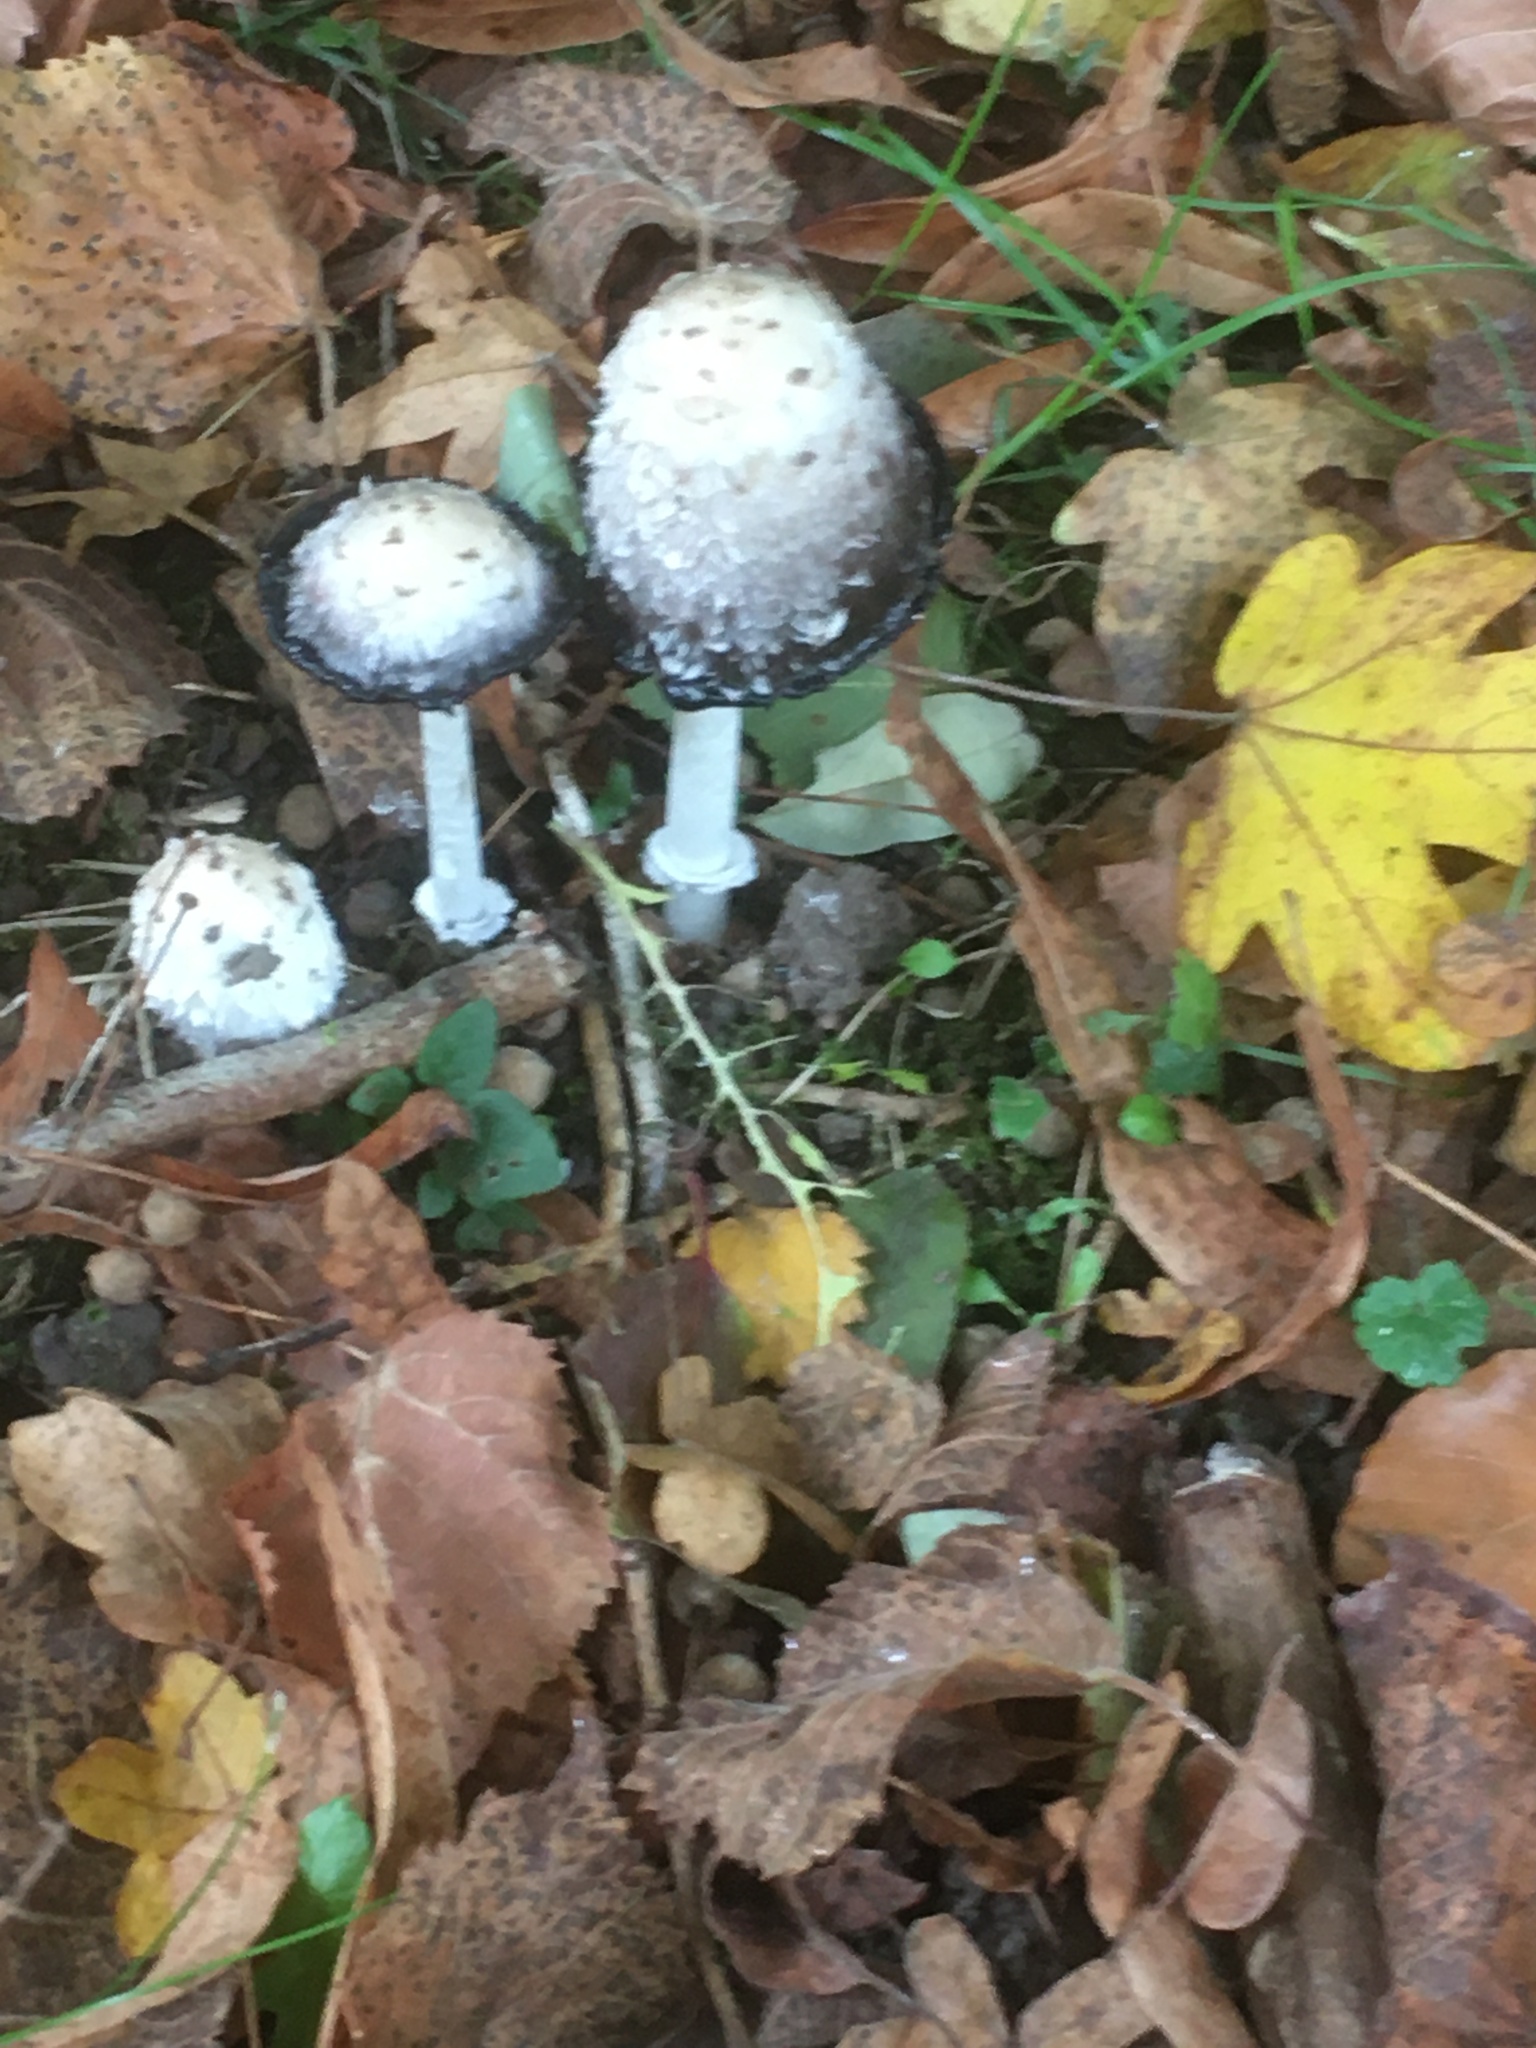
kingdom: Fungi
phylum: Basidiomycota
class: Agaricomycetes
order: Agaricales
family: Agaricaceae
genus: Coprinus
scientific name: Coprinus comatus
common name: Lawyer's wig
